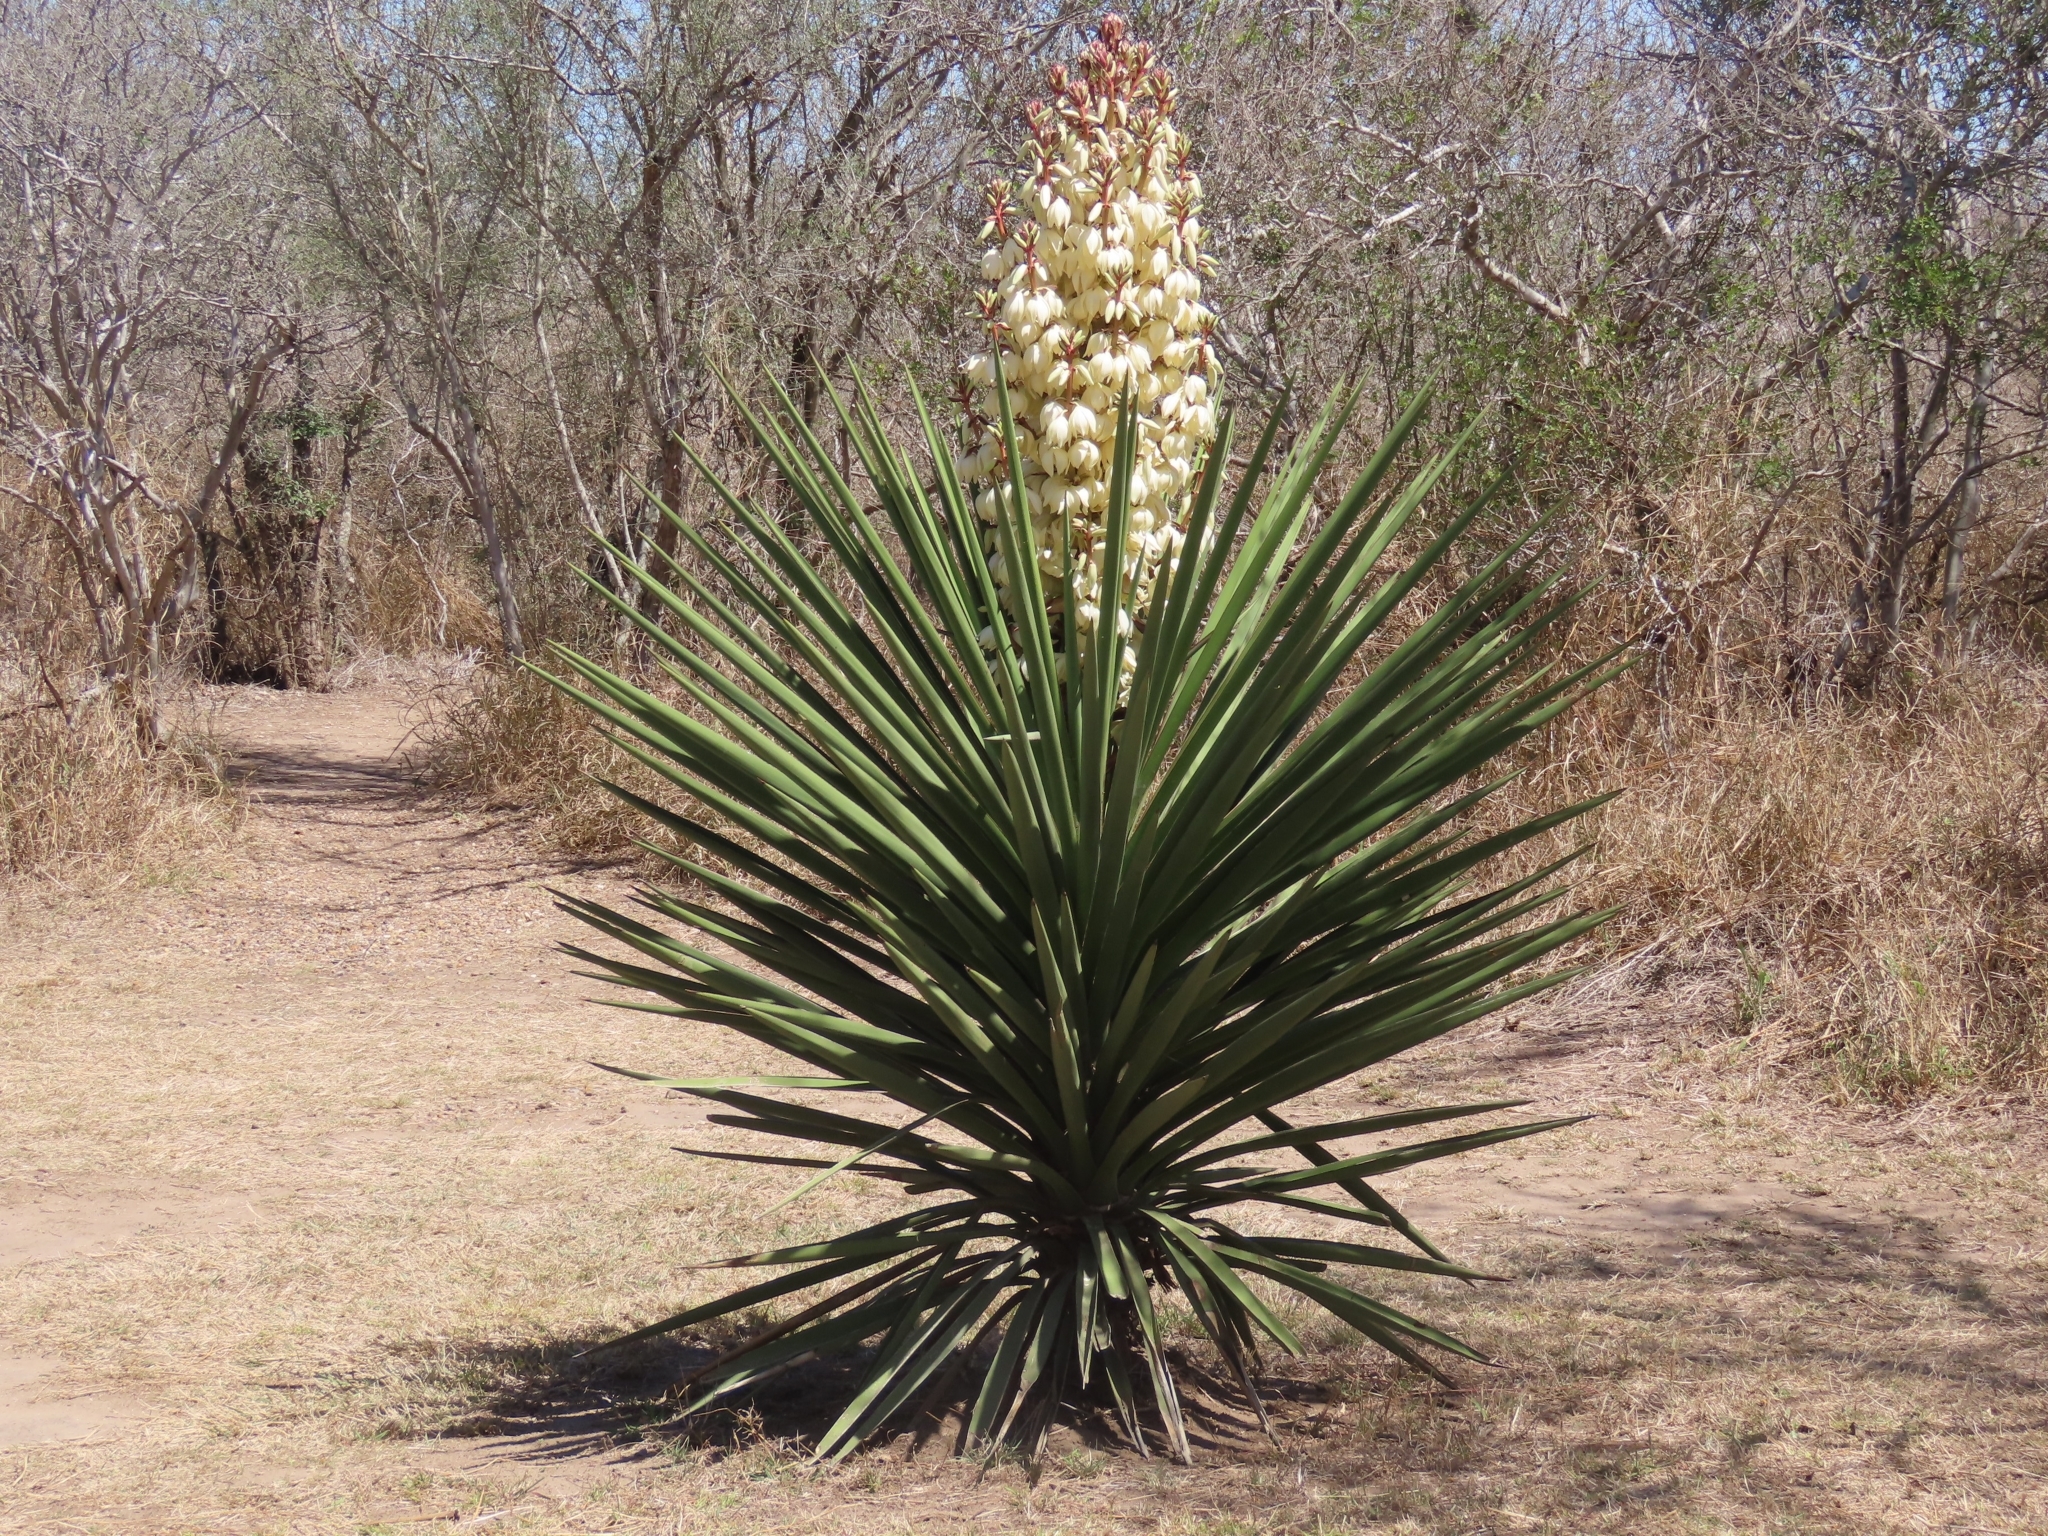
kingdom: Plantae
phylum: Tracheophyta
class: Liliopsida
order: Asparagales
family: Asparagaceae
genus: Yucca
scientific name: Yucca treculiana
